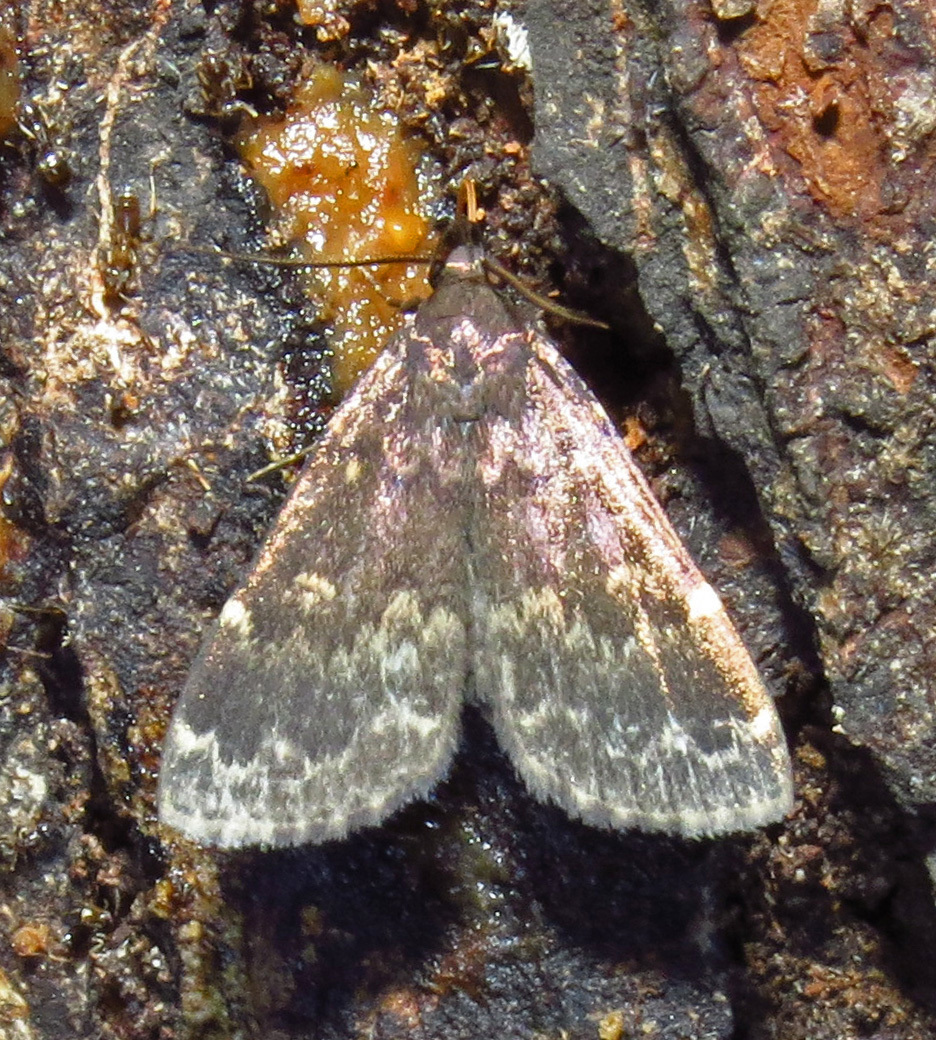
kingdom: Animalia
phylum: Arthropoda
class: Insecta
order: Lepidoptera
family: Erebidae
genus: Idia
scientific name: Idia lubricalis
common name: Twin-striped tabby
